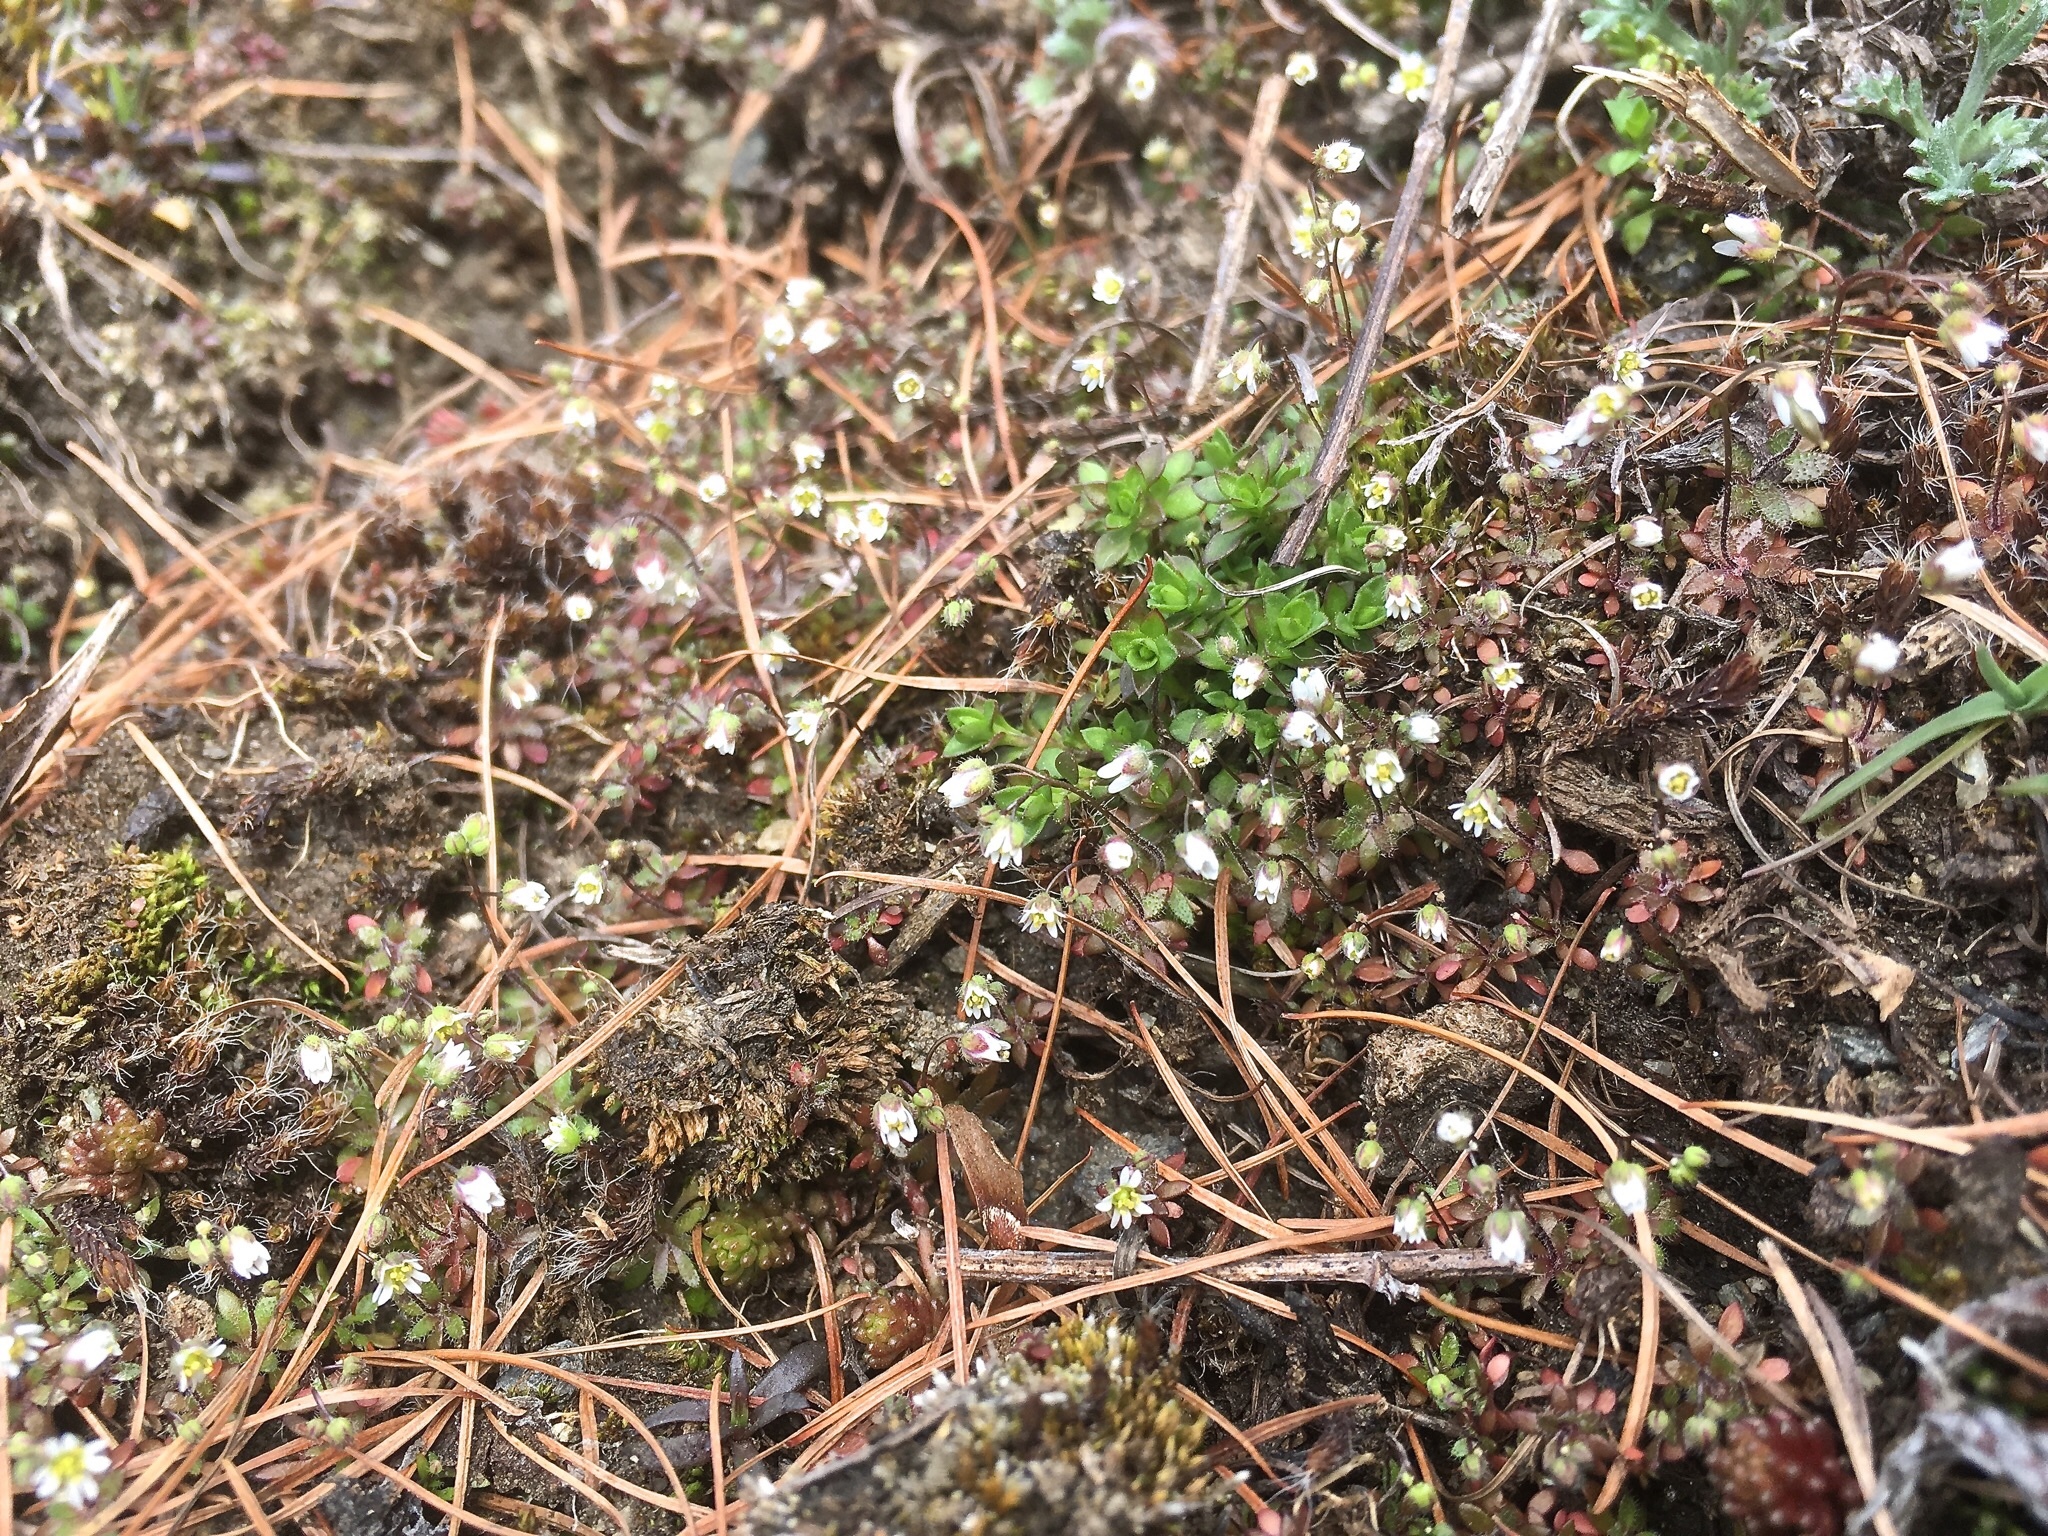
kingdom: Plantae
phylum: Tracheophyta
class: Magnoliopsida
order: Brassicales
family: Brassicaceae
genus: Draba
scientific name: Draba verna
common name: Spring draba
